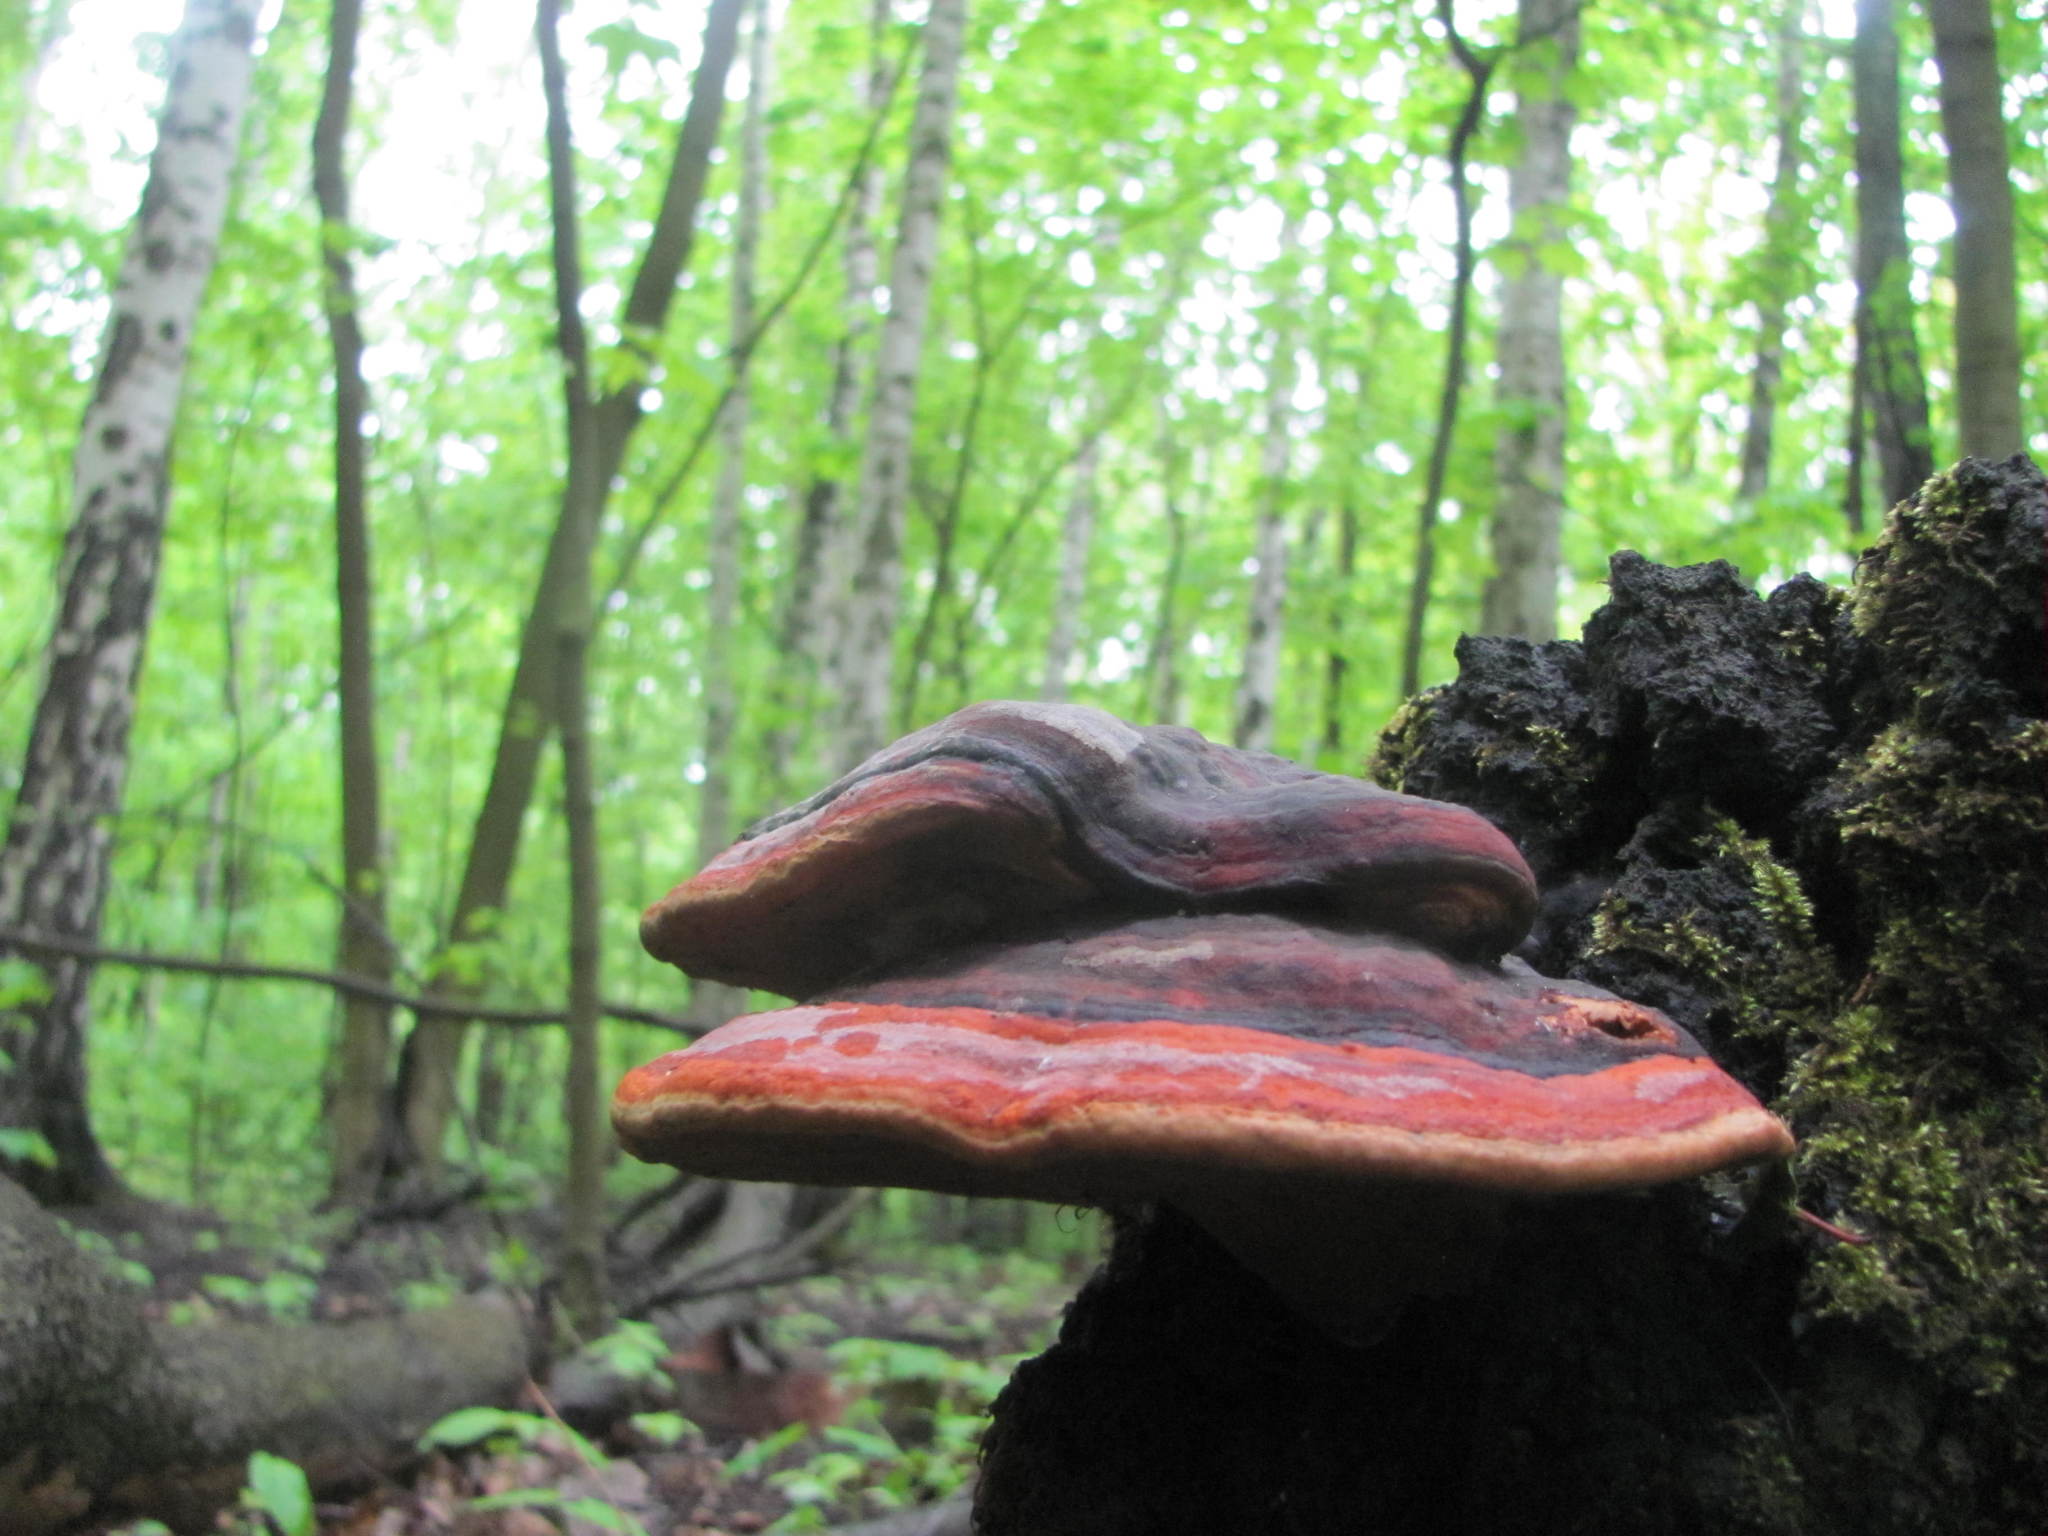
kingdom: Fungi
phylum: Basidiomycota
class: Agaricomycetes
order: Polyporales
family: Fomitopsidaceae
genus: Fomitopsis
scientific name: Fomitopsis pinicola
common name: Red-belted bracket
